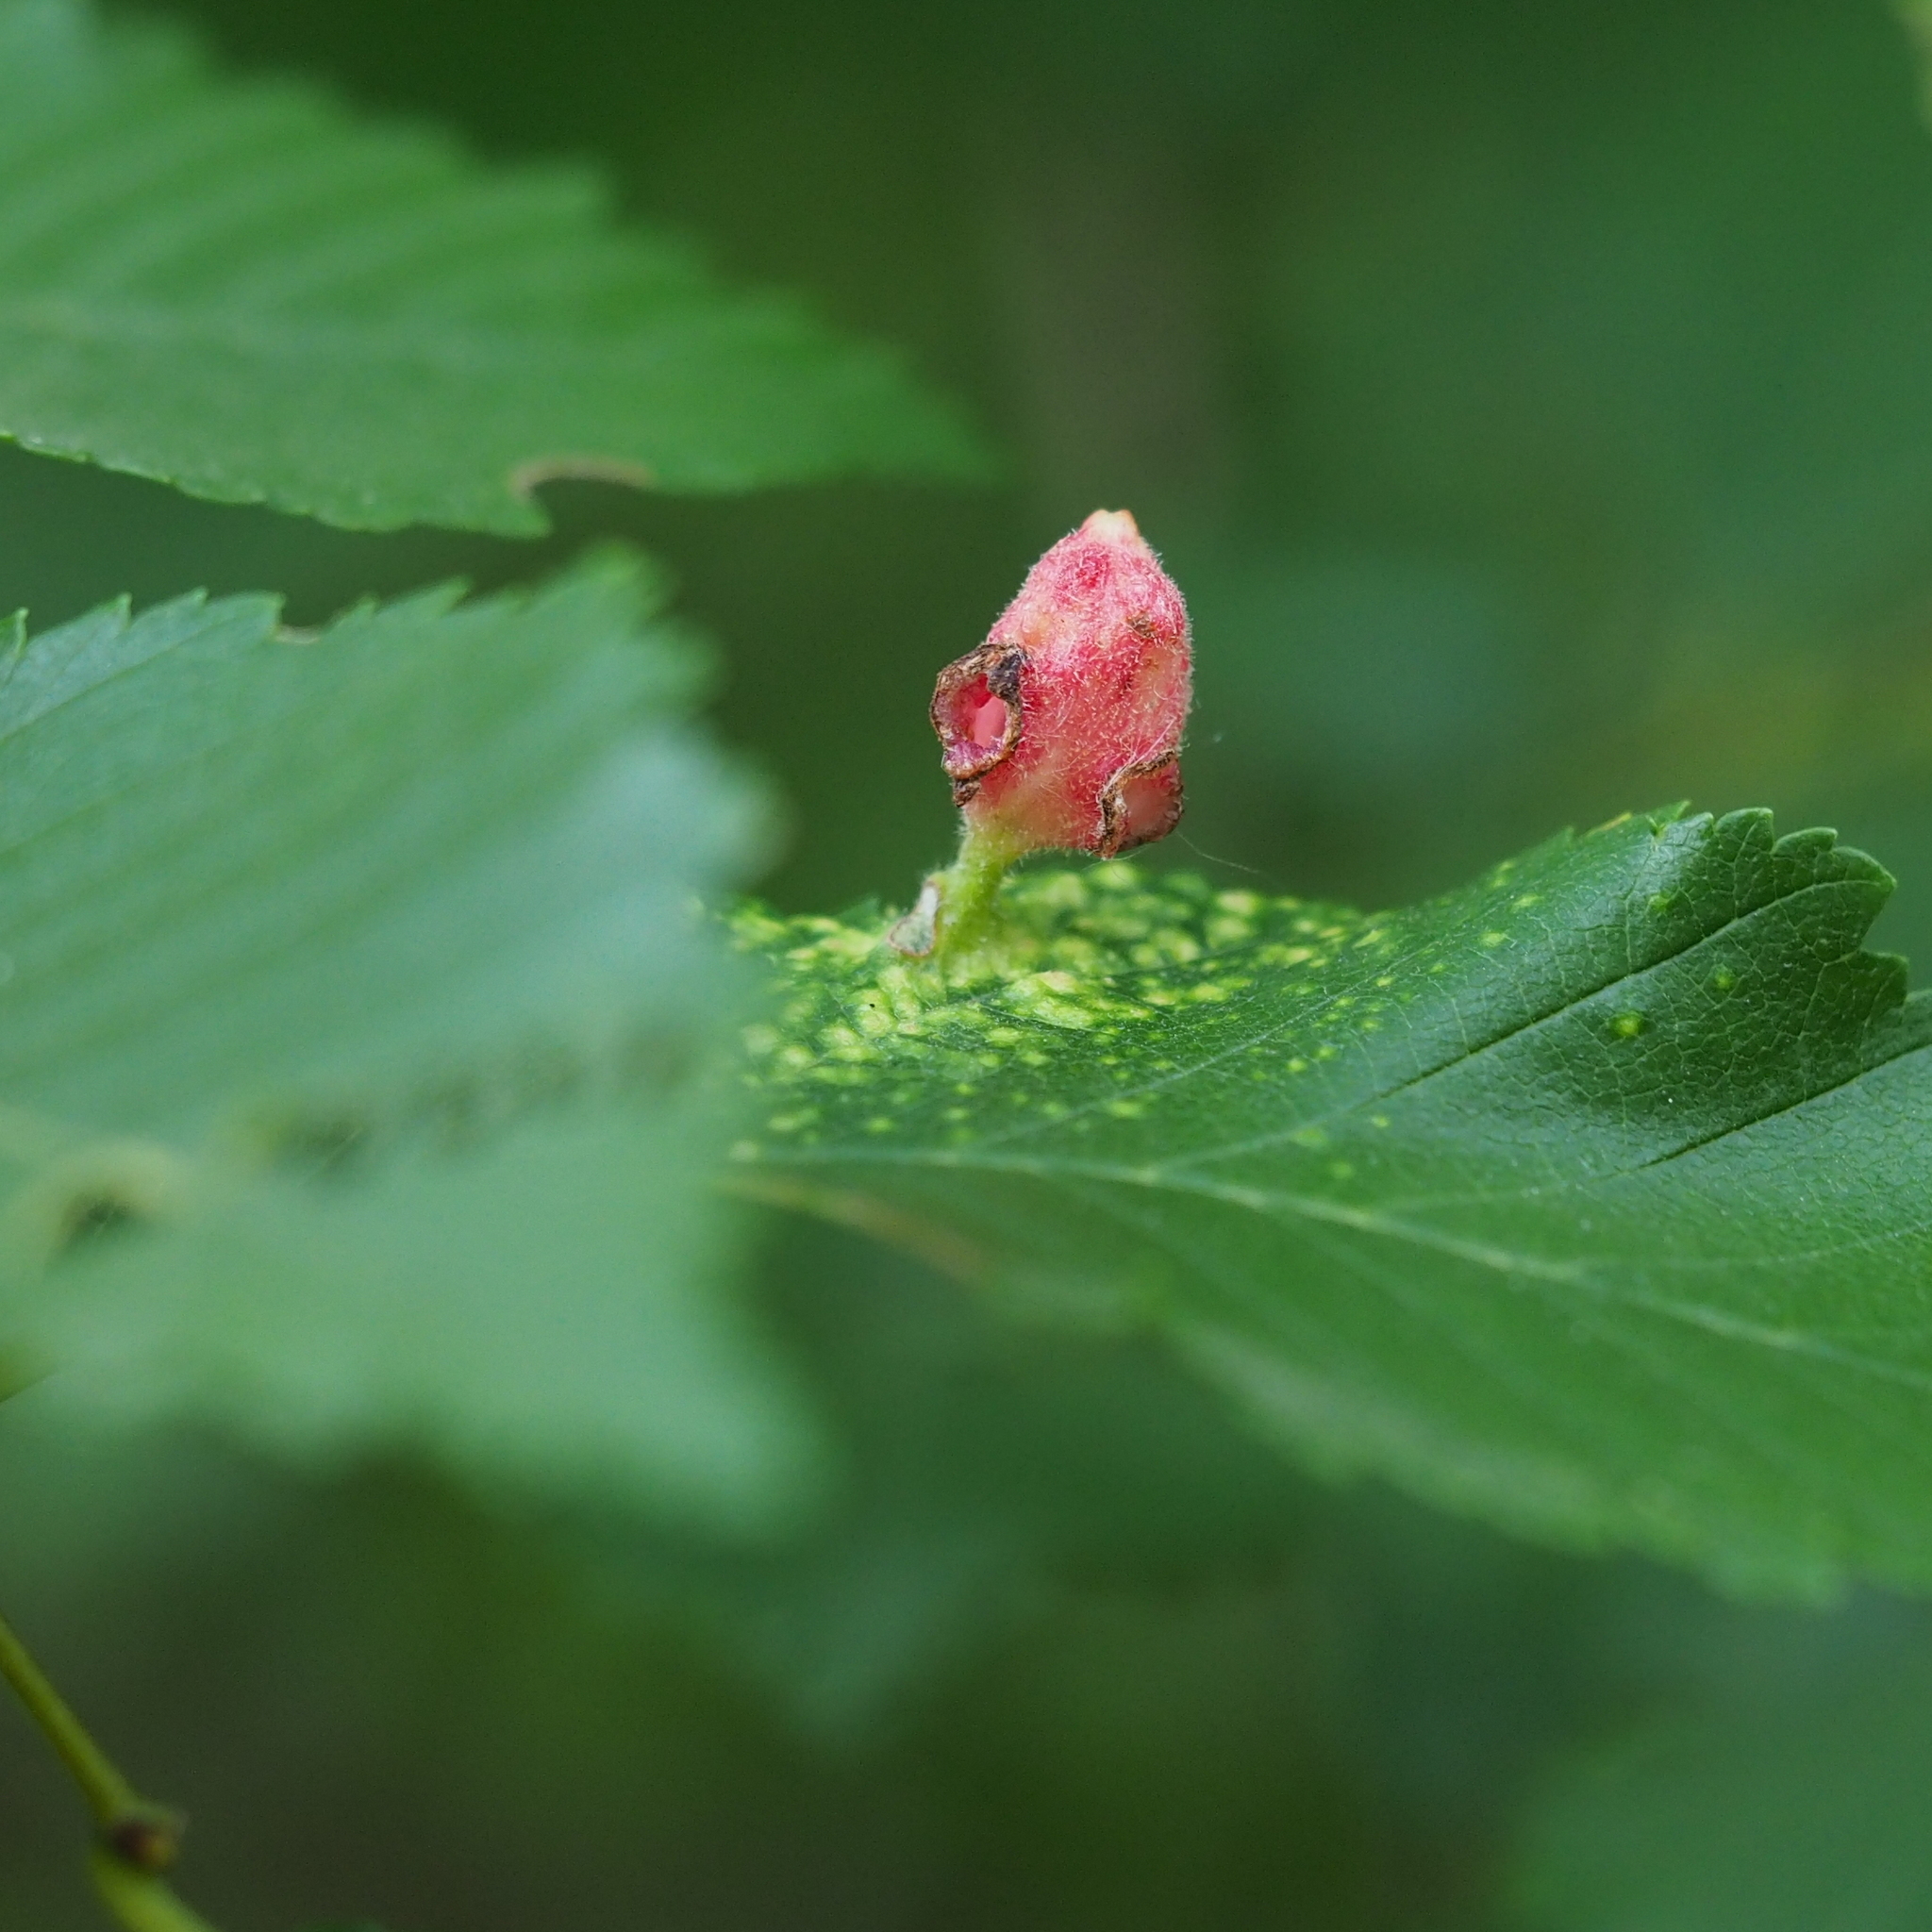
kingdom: Animalia
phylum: Arthropoda
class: Insecta
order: Hemiptera
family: Aphididae
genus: Tetraneura
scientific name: Tetraneura nigriabdominalis
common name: Aphid
